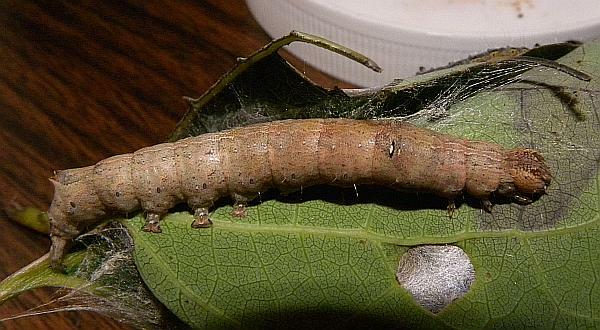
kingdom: Animalia
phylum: Arthropoda
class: Insecta
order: Lepidoptera
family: Erebidae
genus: Zale
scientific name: Zale aeruginosa
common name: Green-dusted zale moth
